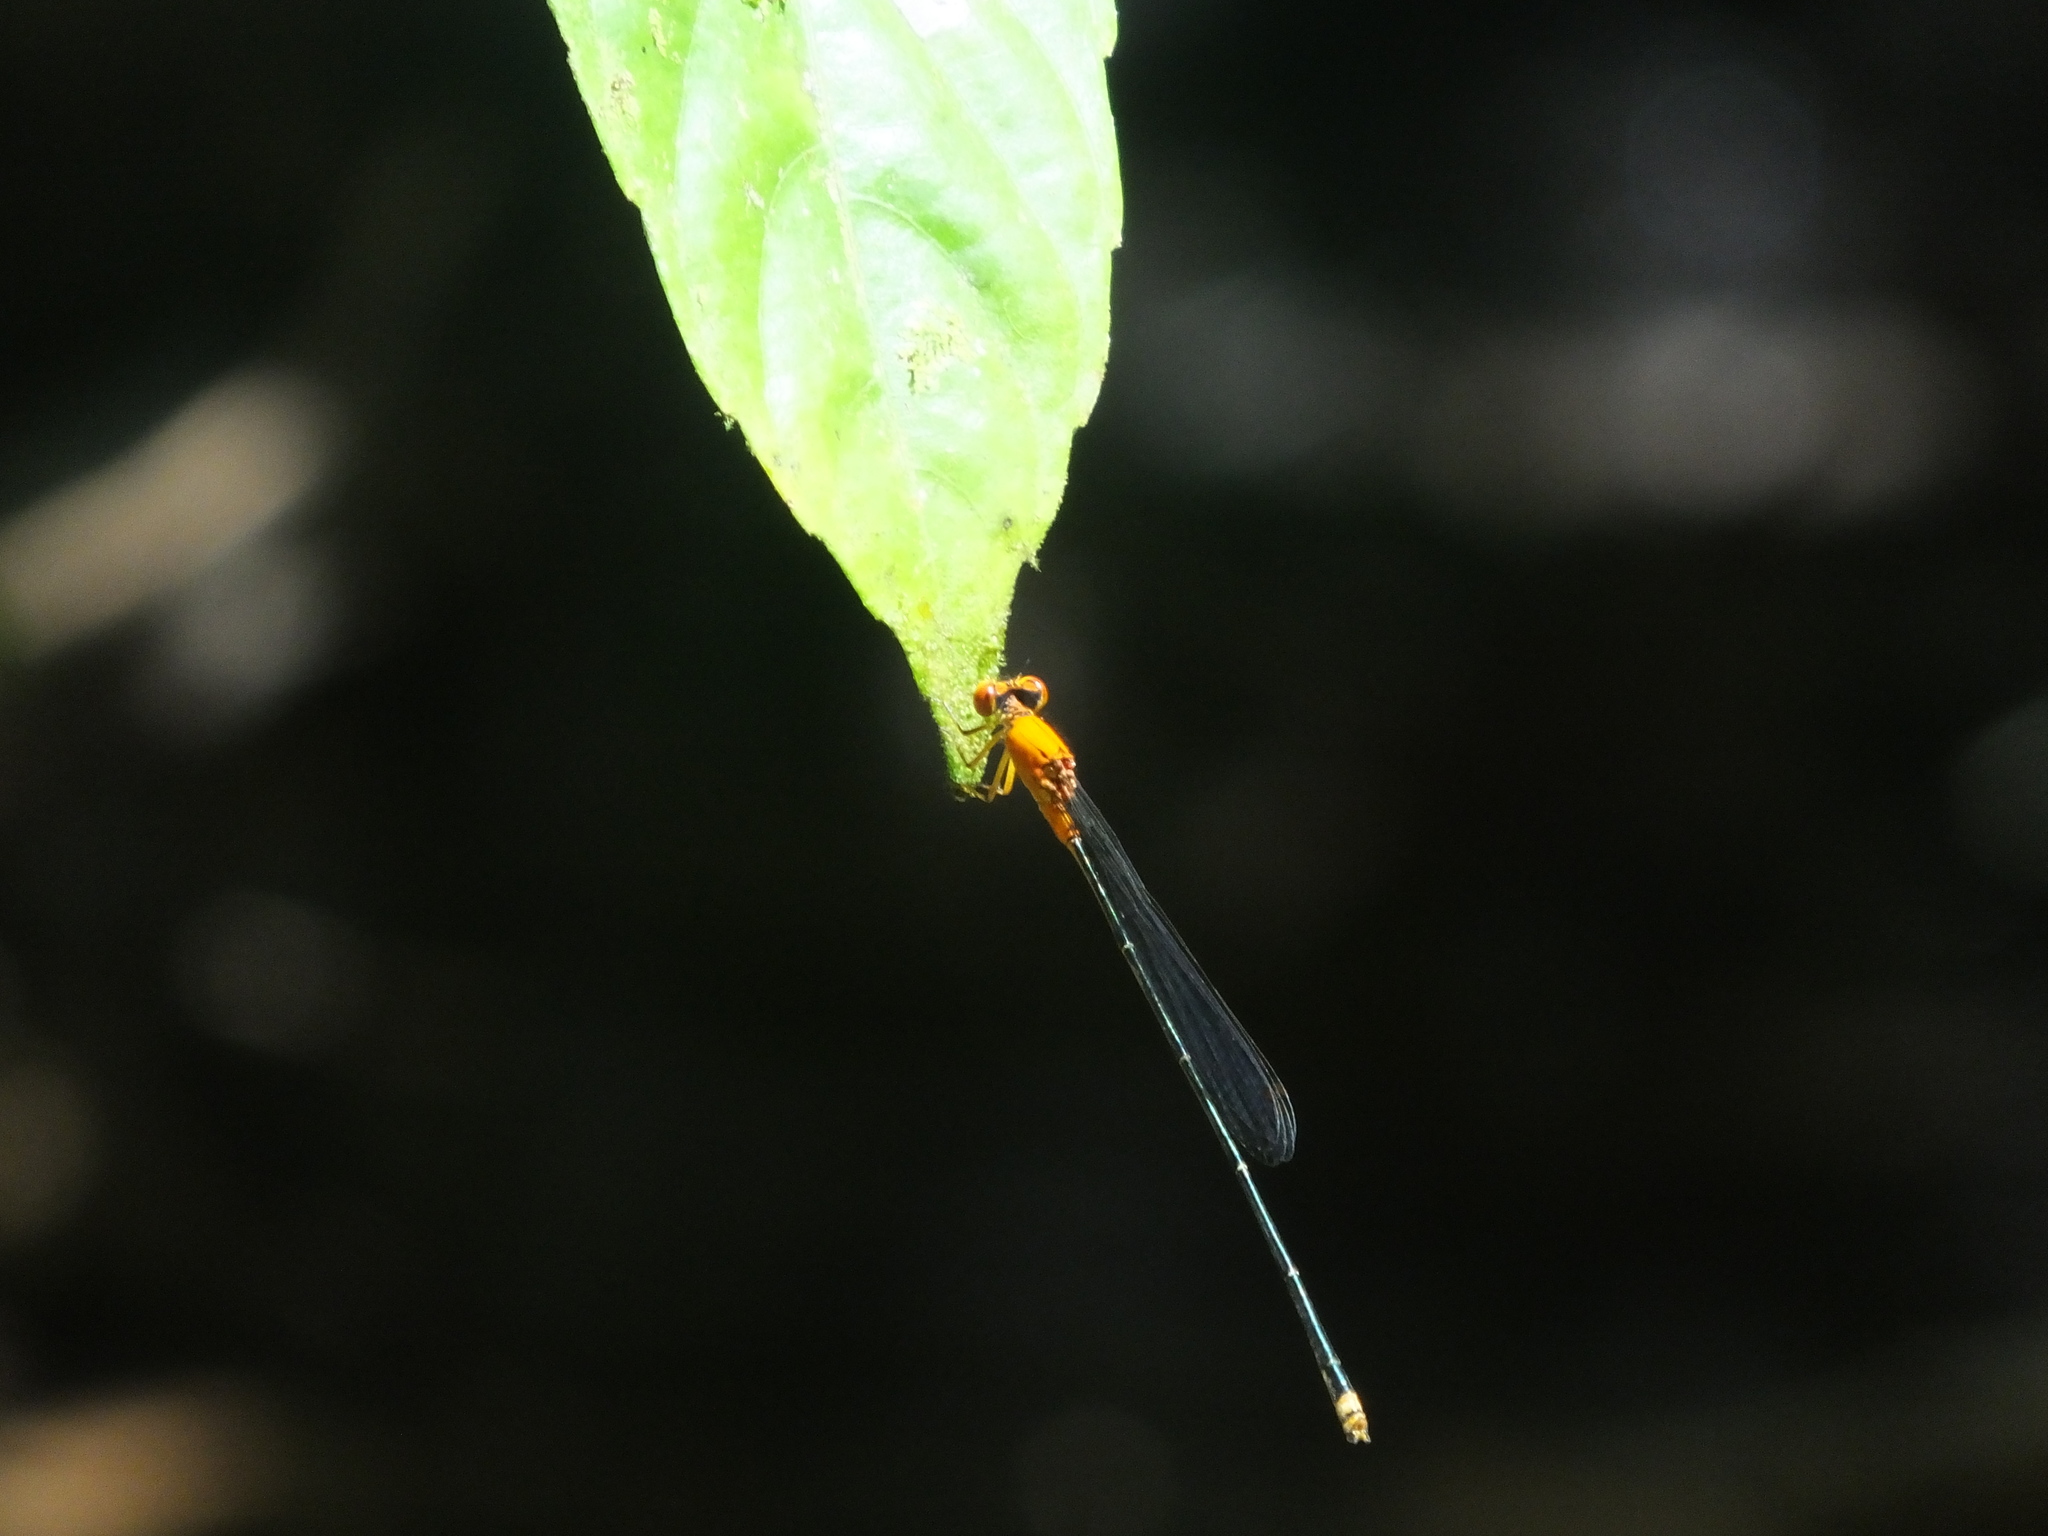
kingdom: Animalia
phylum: Arthropoda
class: Insecta
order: Odonata
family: Coenagrionidae
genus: Pseudagrion
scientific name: Pseudagrion ustum
